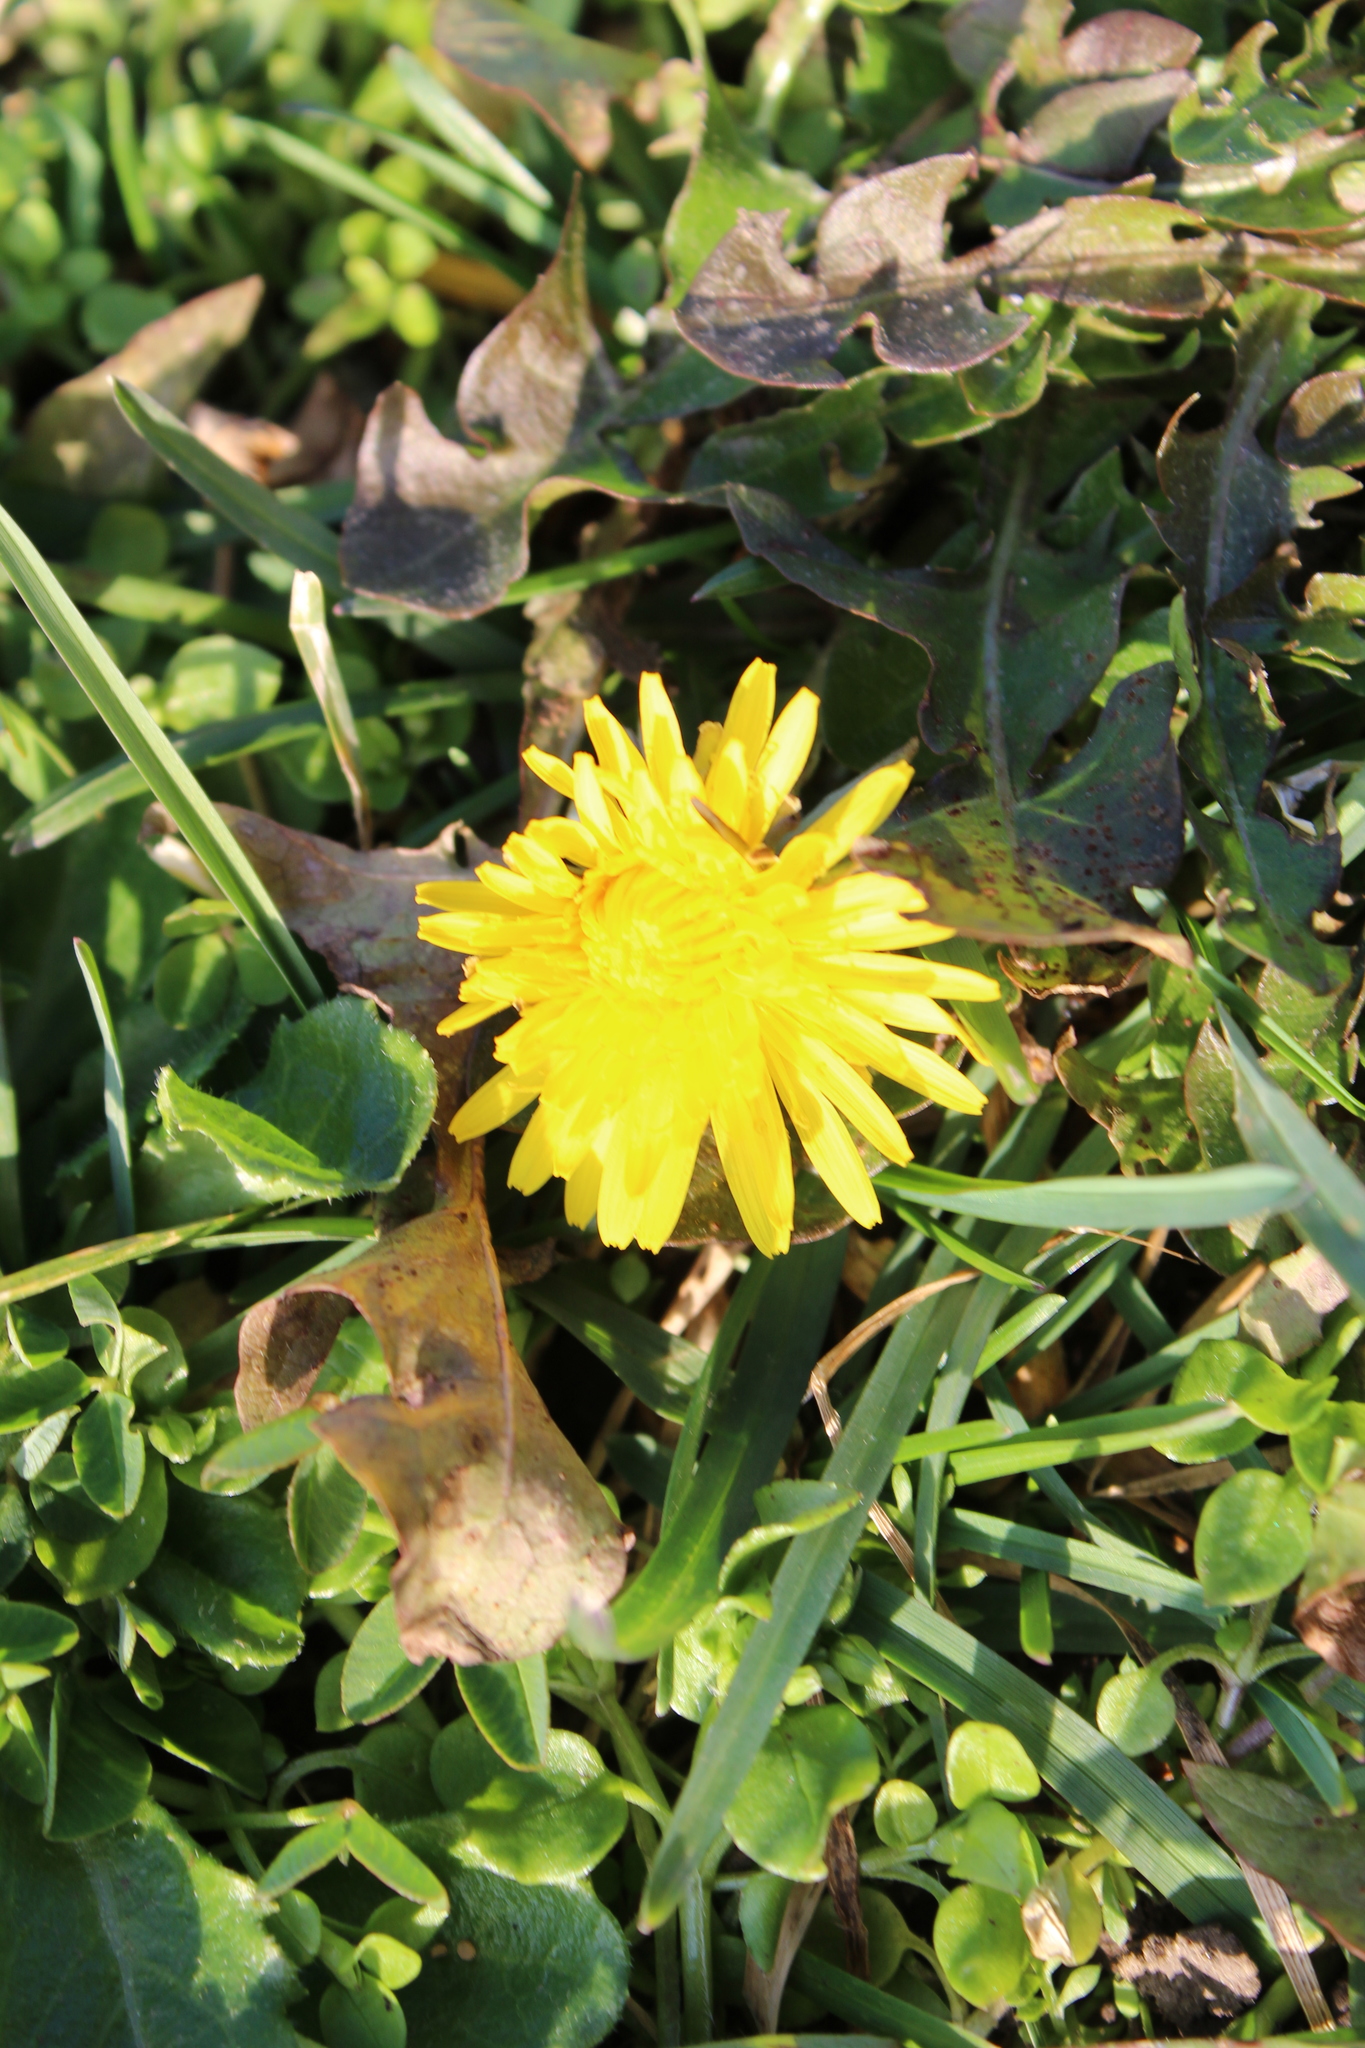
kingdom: Plantae
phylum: Tracheophyta
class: Magnoliopsida
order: Asterales
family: Asteraceae
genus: Taraxacum
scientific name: Taraxacum officinale
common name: Common dandelion
